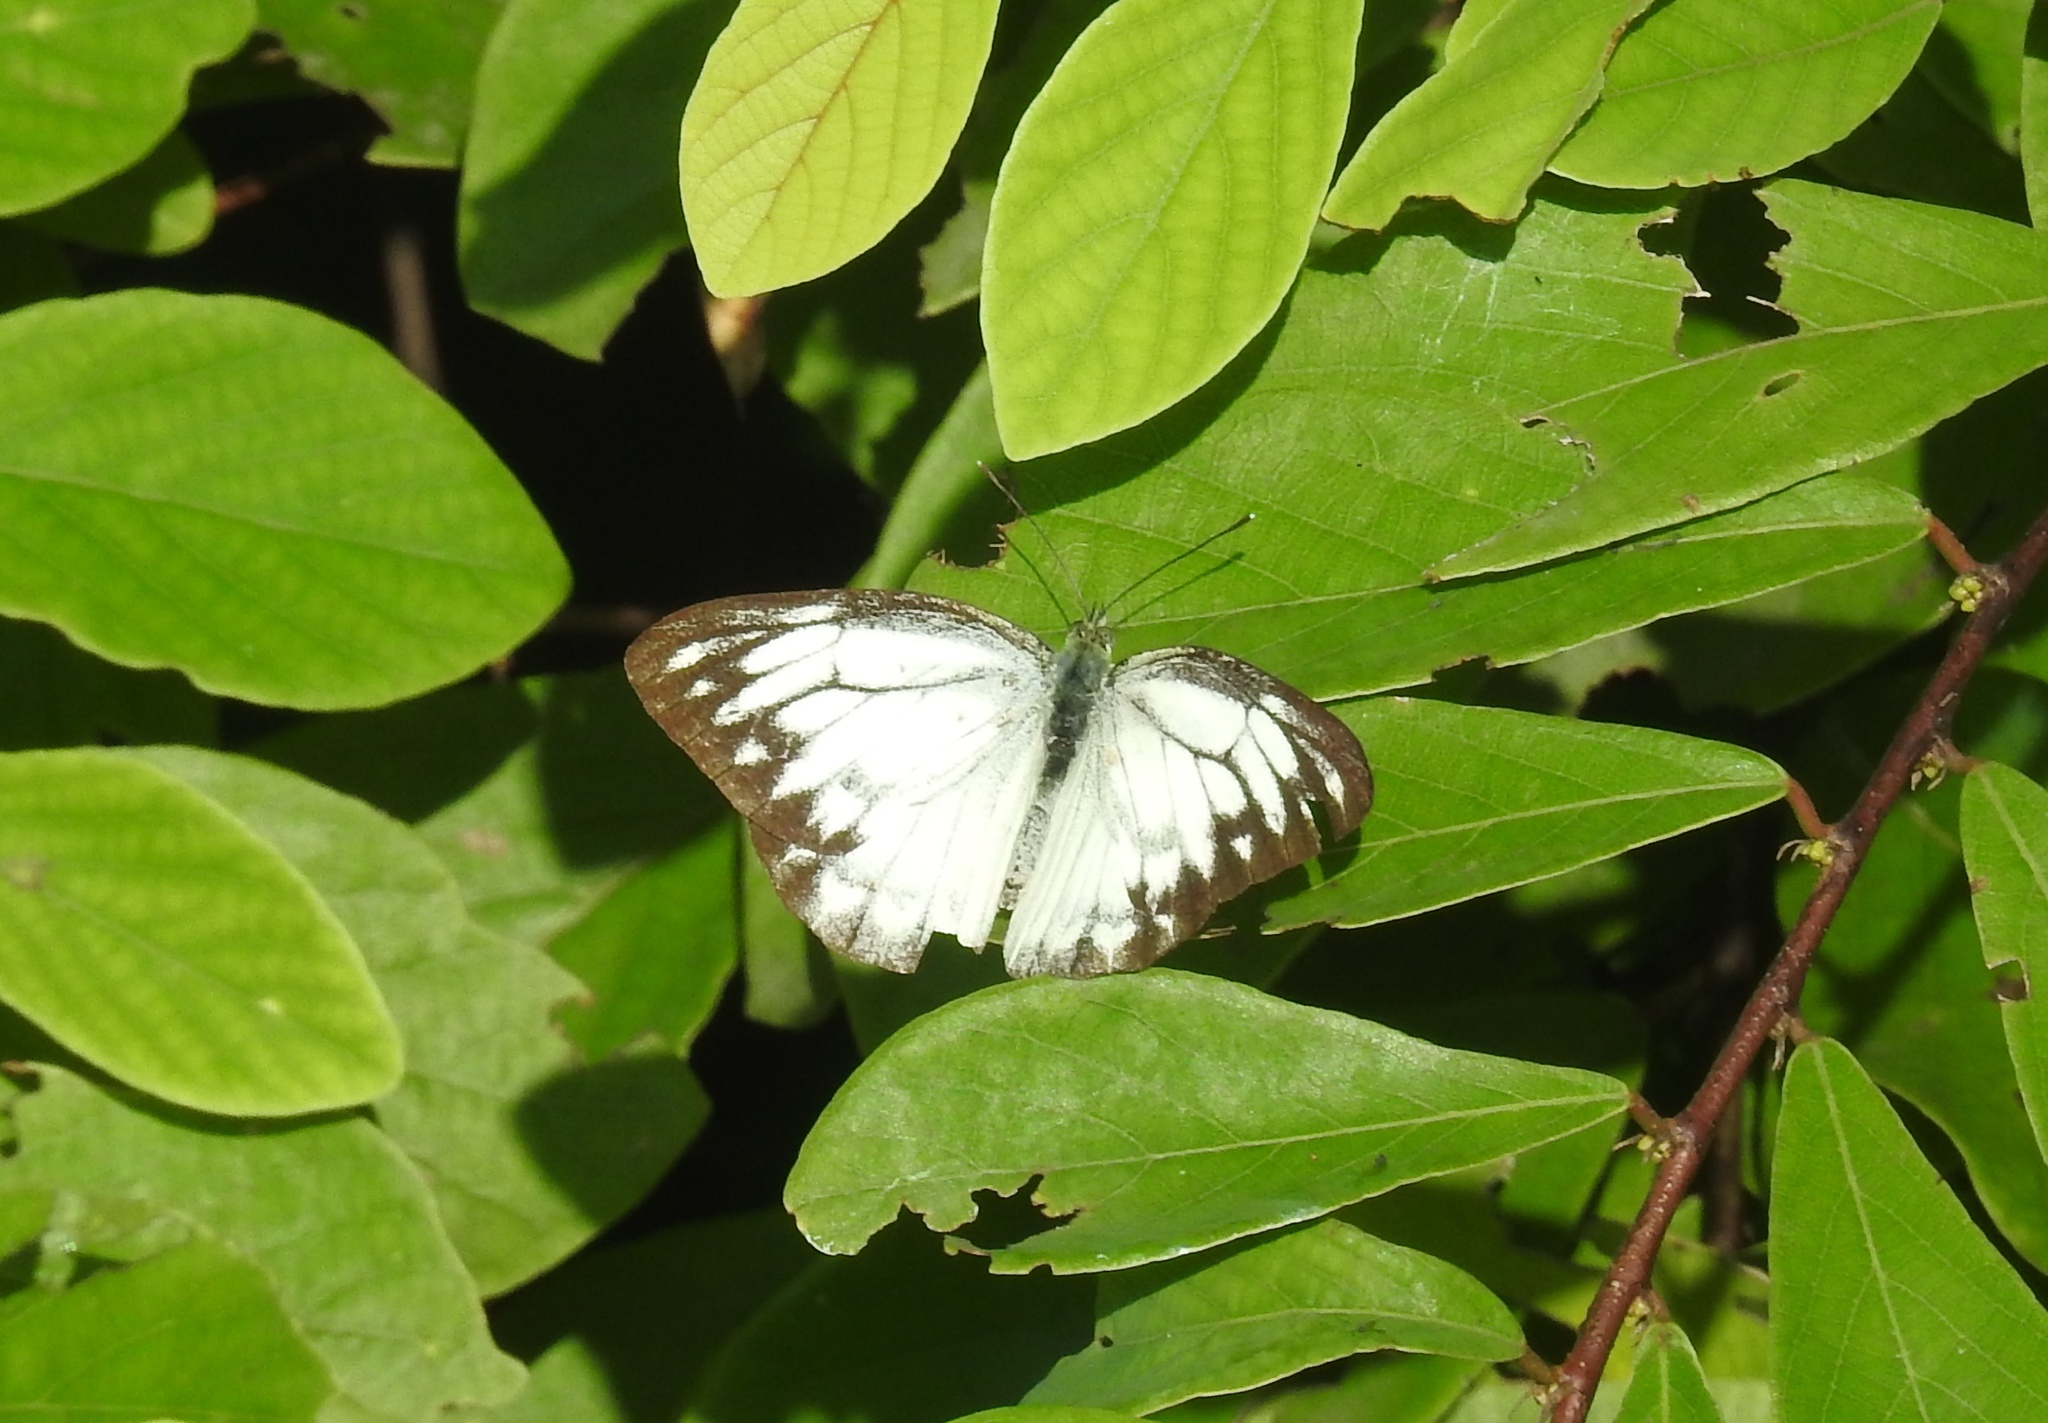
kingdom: Animalia
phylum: Arthropoda
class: Insecta
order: Lepidoptera
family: Pieridae
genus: Cepora
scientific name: Cepora nerissa
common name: Common gull
